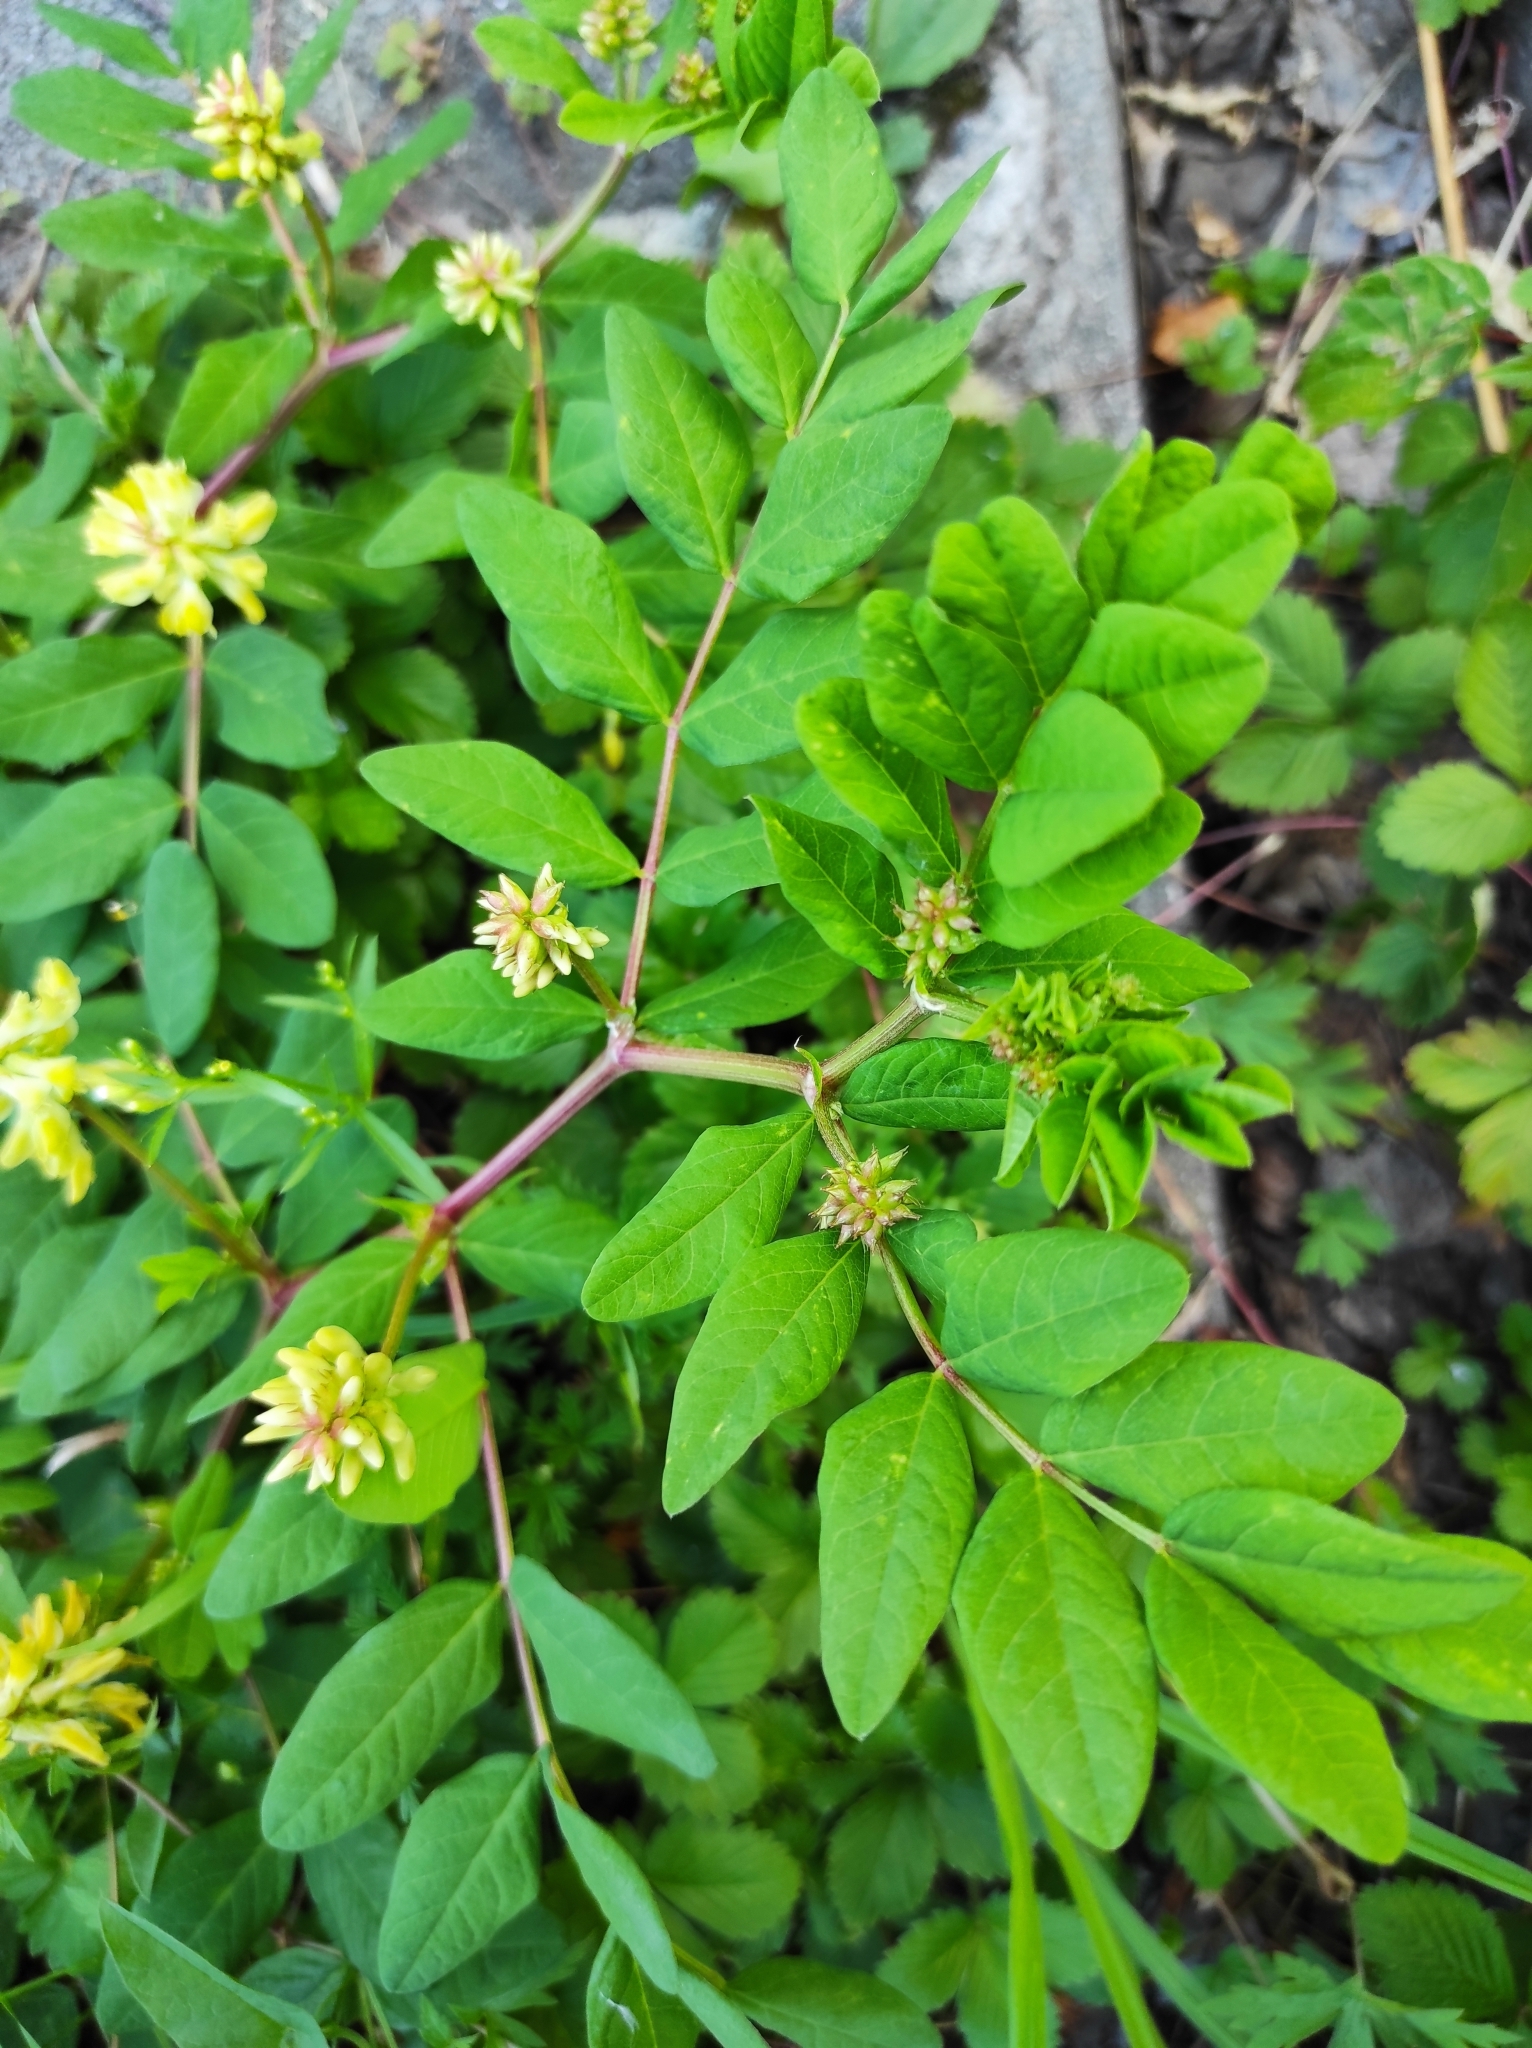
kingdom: Plantae
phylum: Tracheophyta
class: Magnoliopsida
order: Fabales
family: Fabaceae
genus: Astragalus
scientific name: Astragalus glycyphyllos
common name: Wild liquorice
